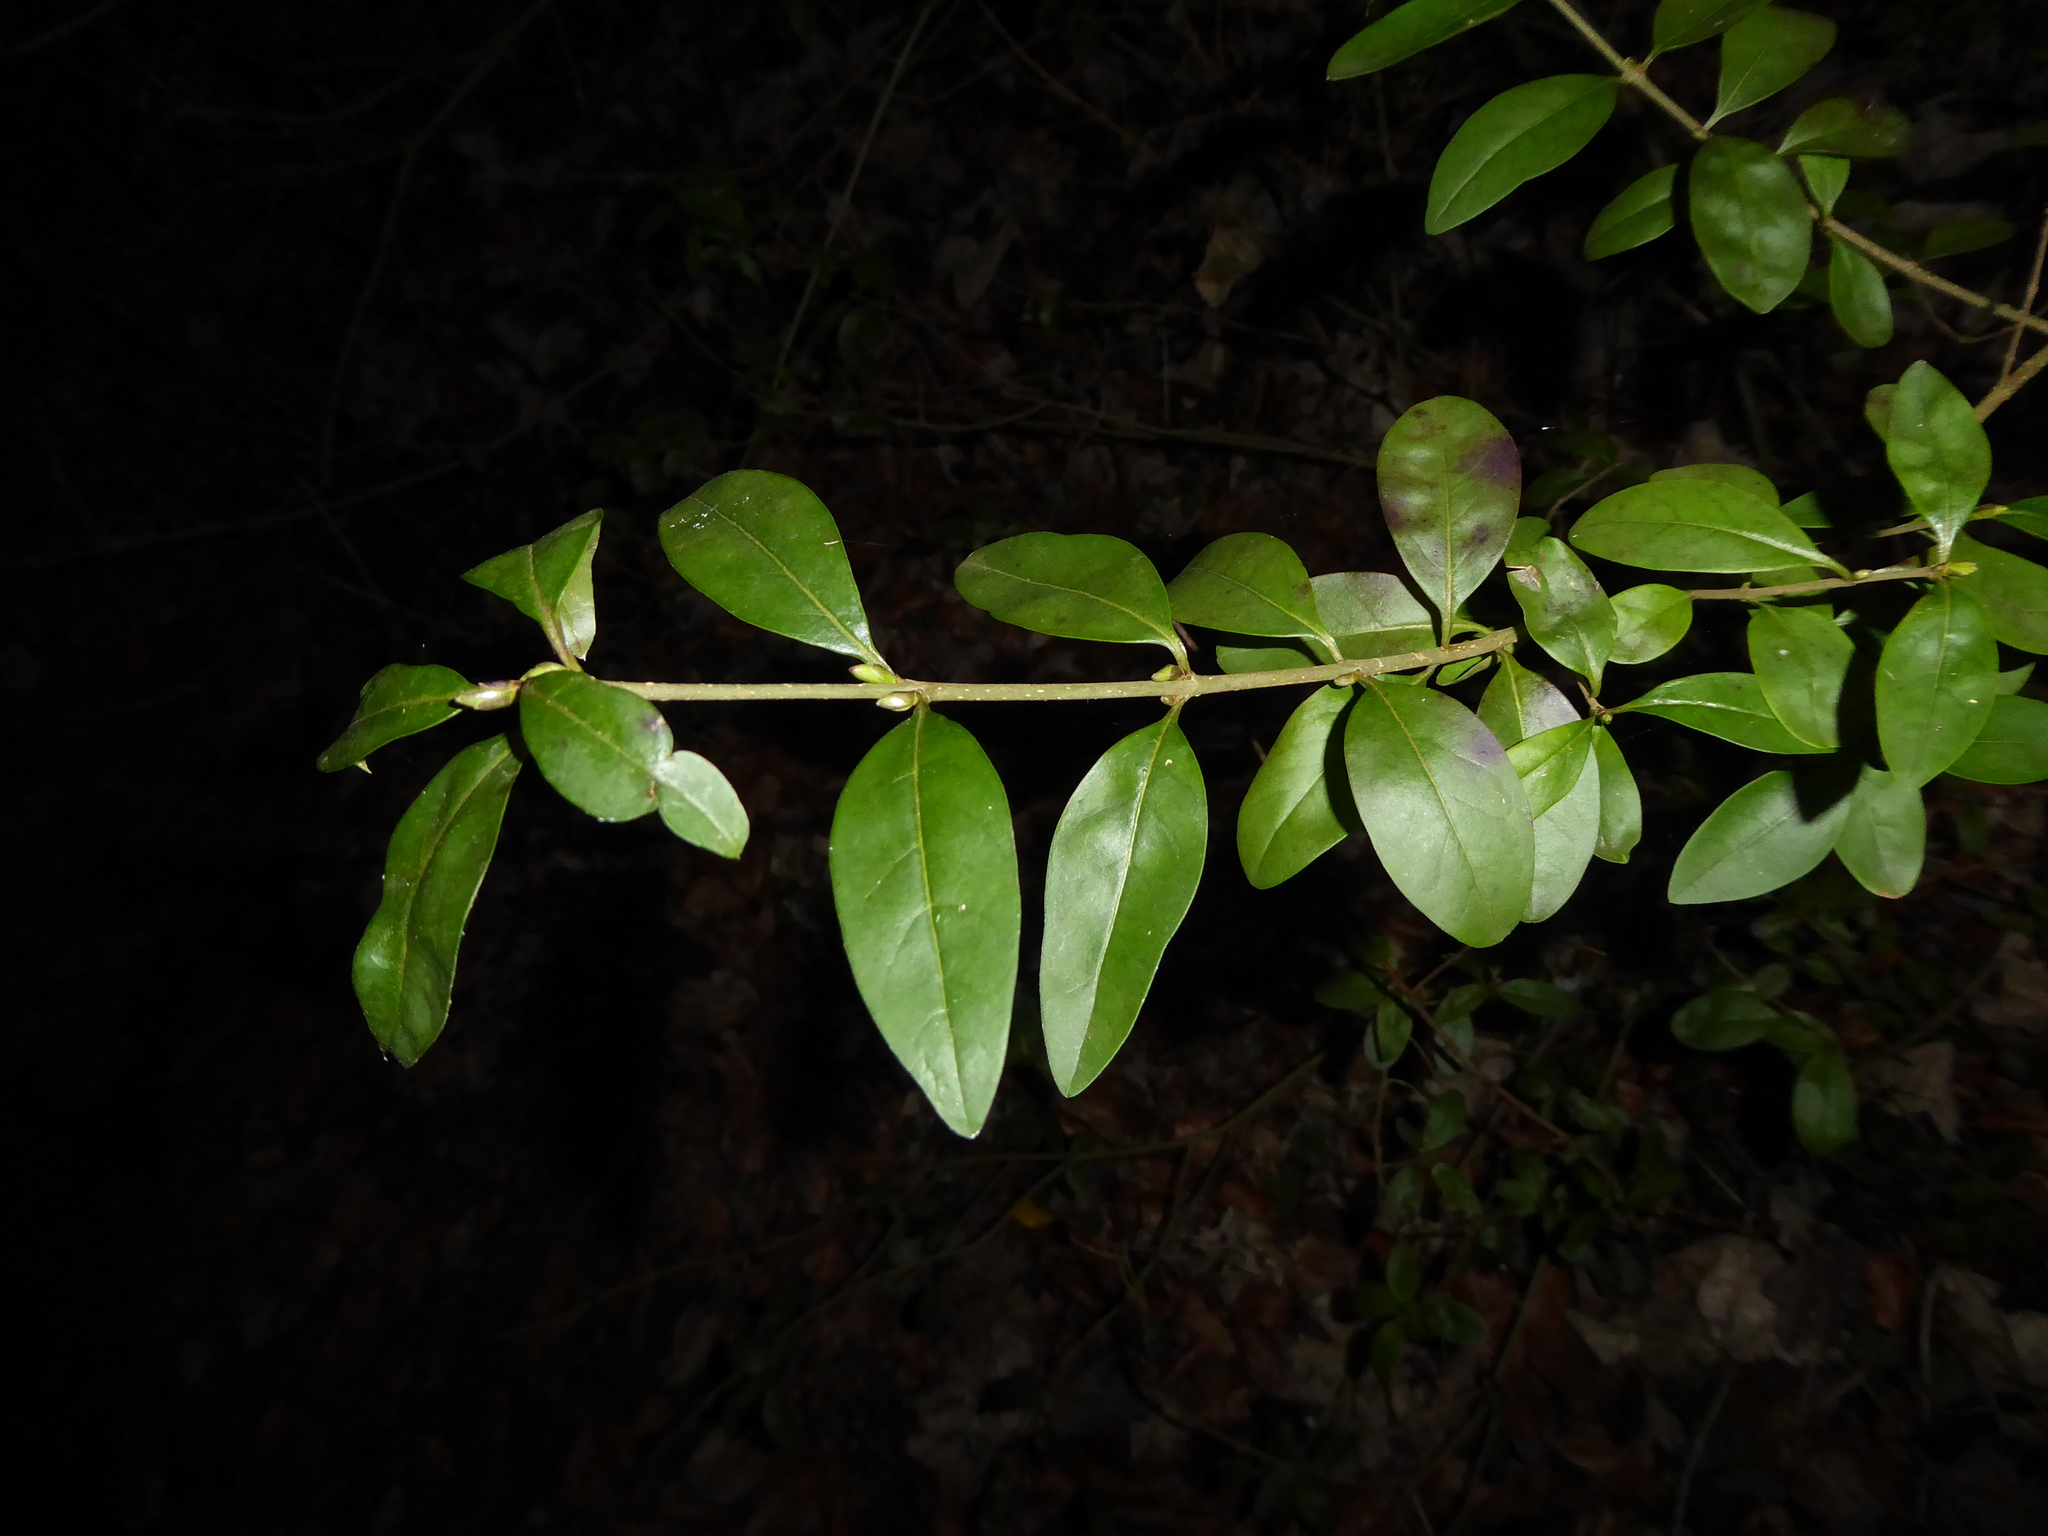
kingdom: Plantae
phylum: Tracheophyta
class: Magnoliopsida
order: Lamiales
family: Oleaceae
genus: Ligustrum
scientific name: Ligustrum vulgare
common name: Wild privet
